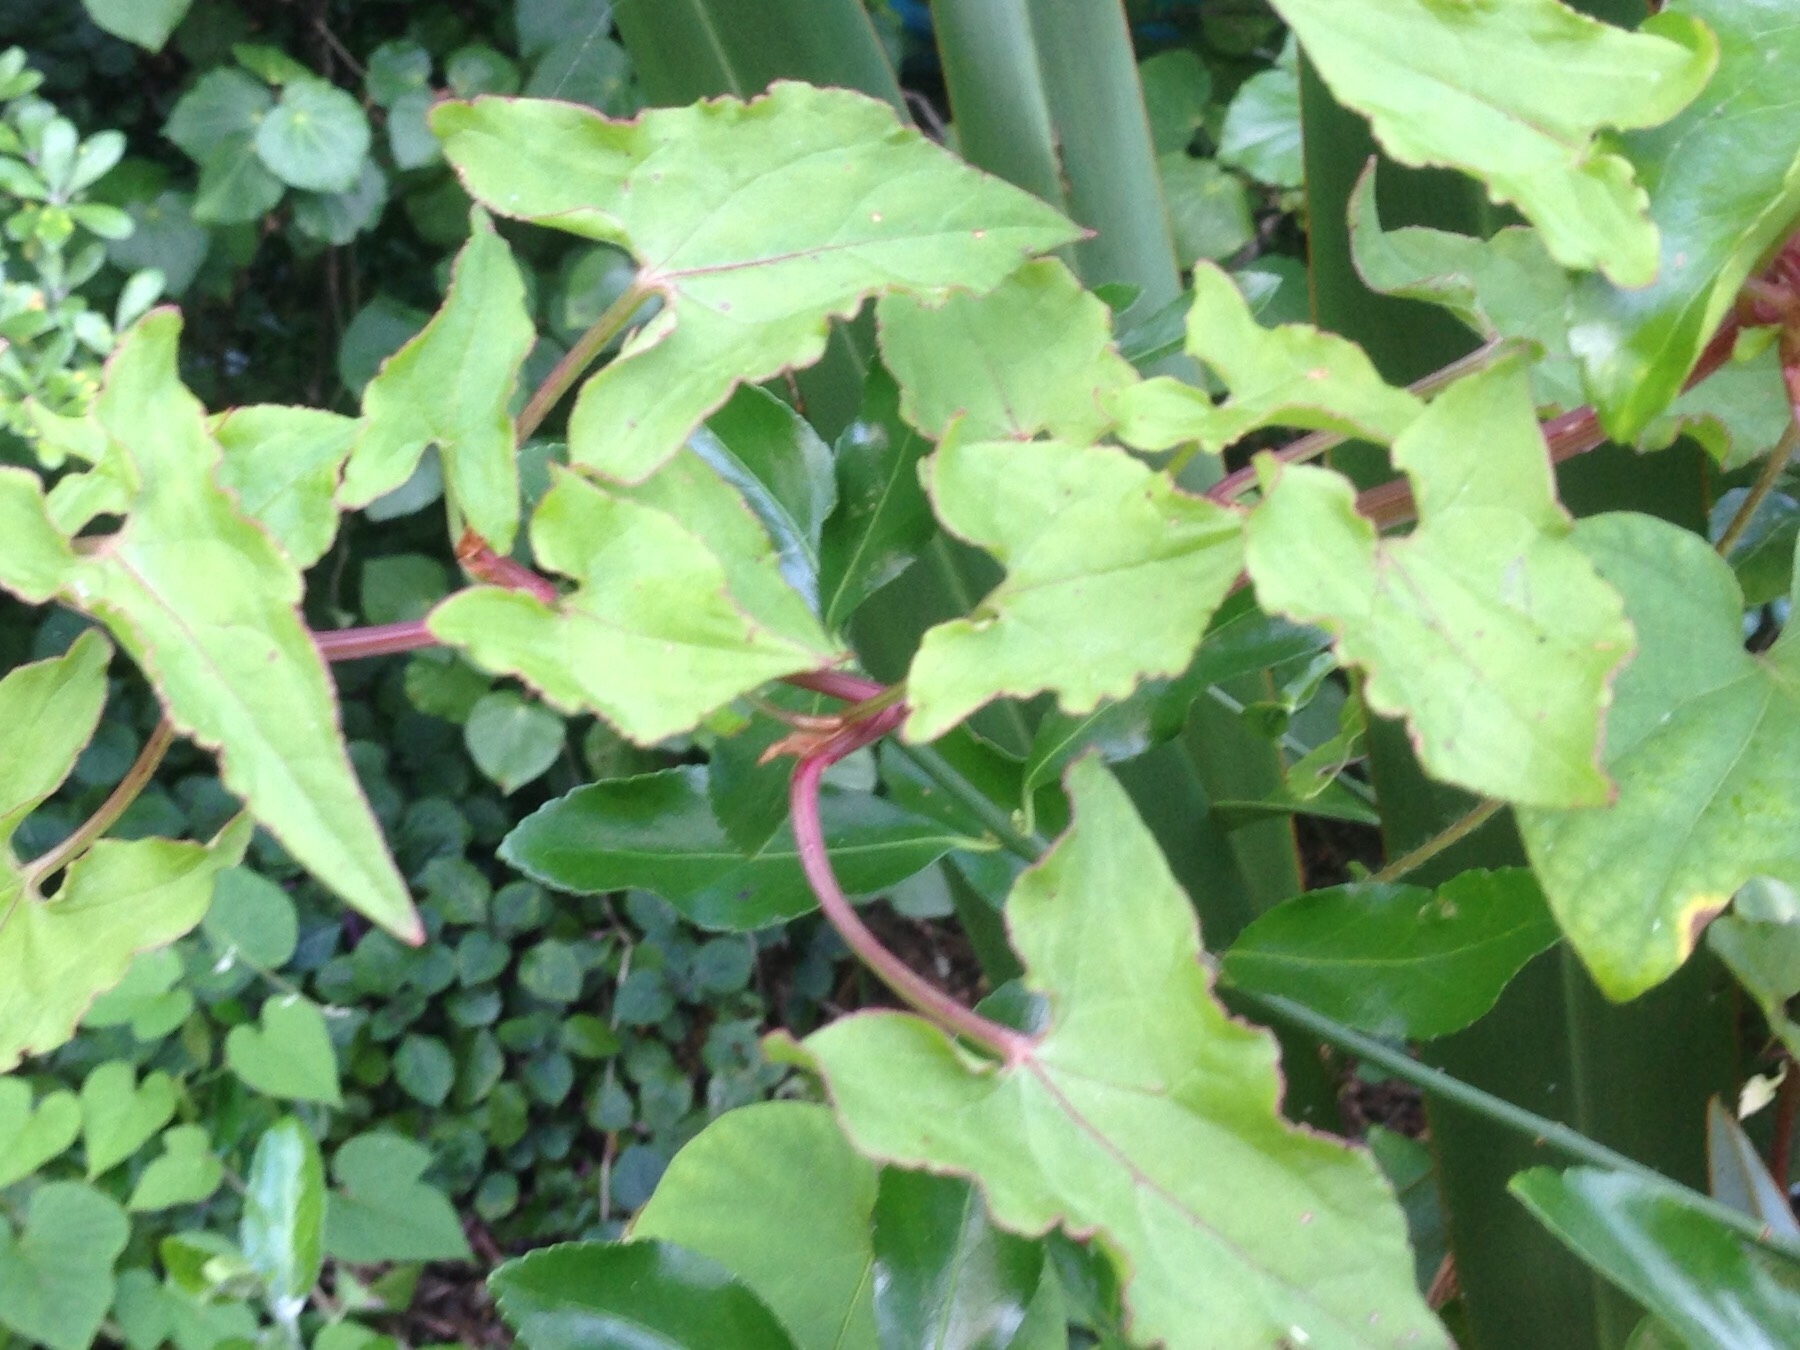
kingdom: Plantae
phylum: Tracheophyta
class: Magnoliopsida
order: Caryophyllales
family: Polygonaceae
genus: Rumex
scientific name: Rumex sagittatus
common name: Climbing dock
